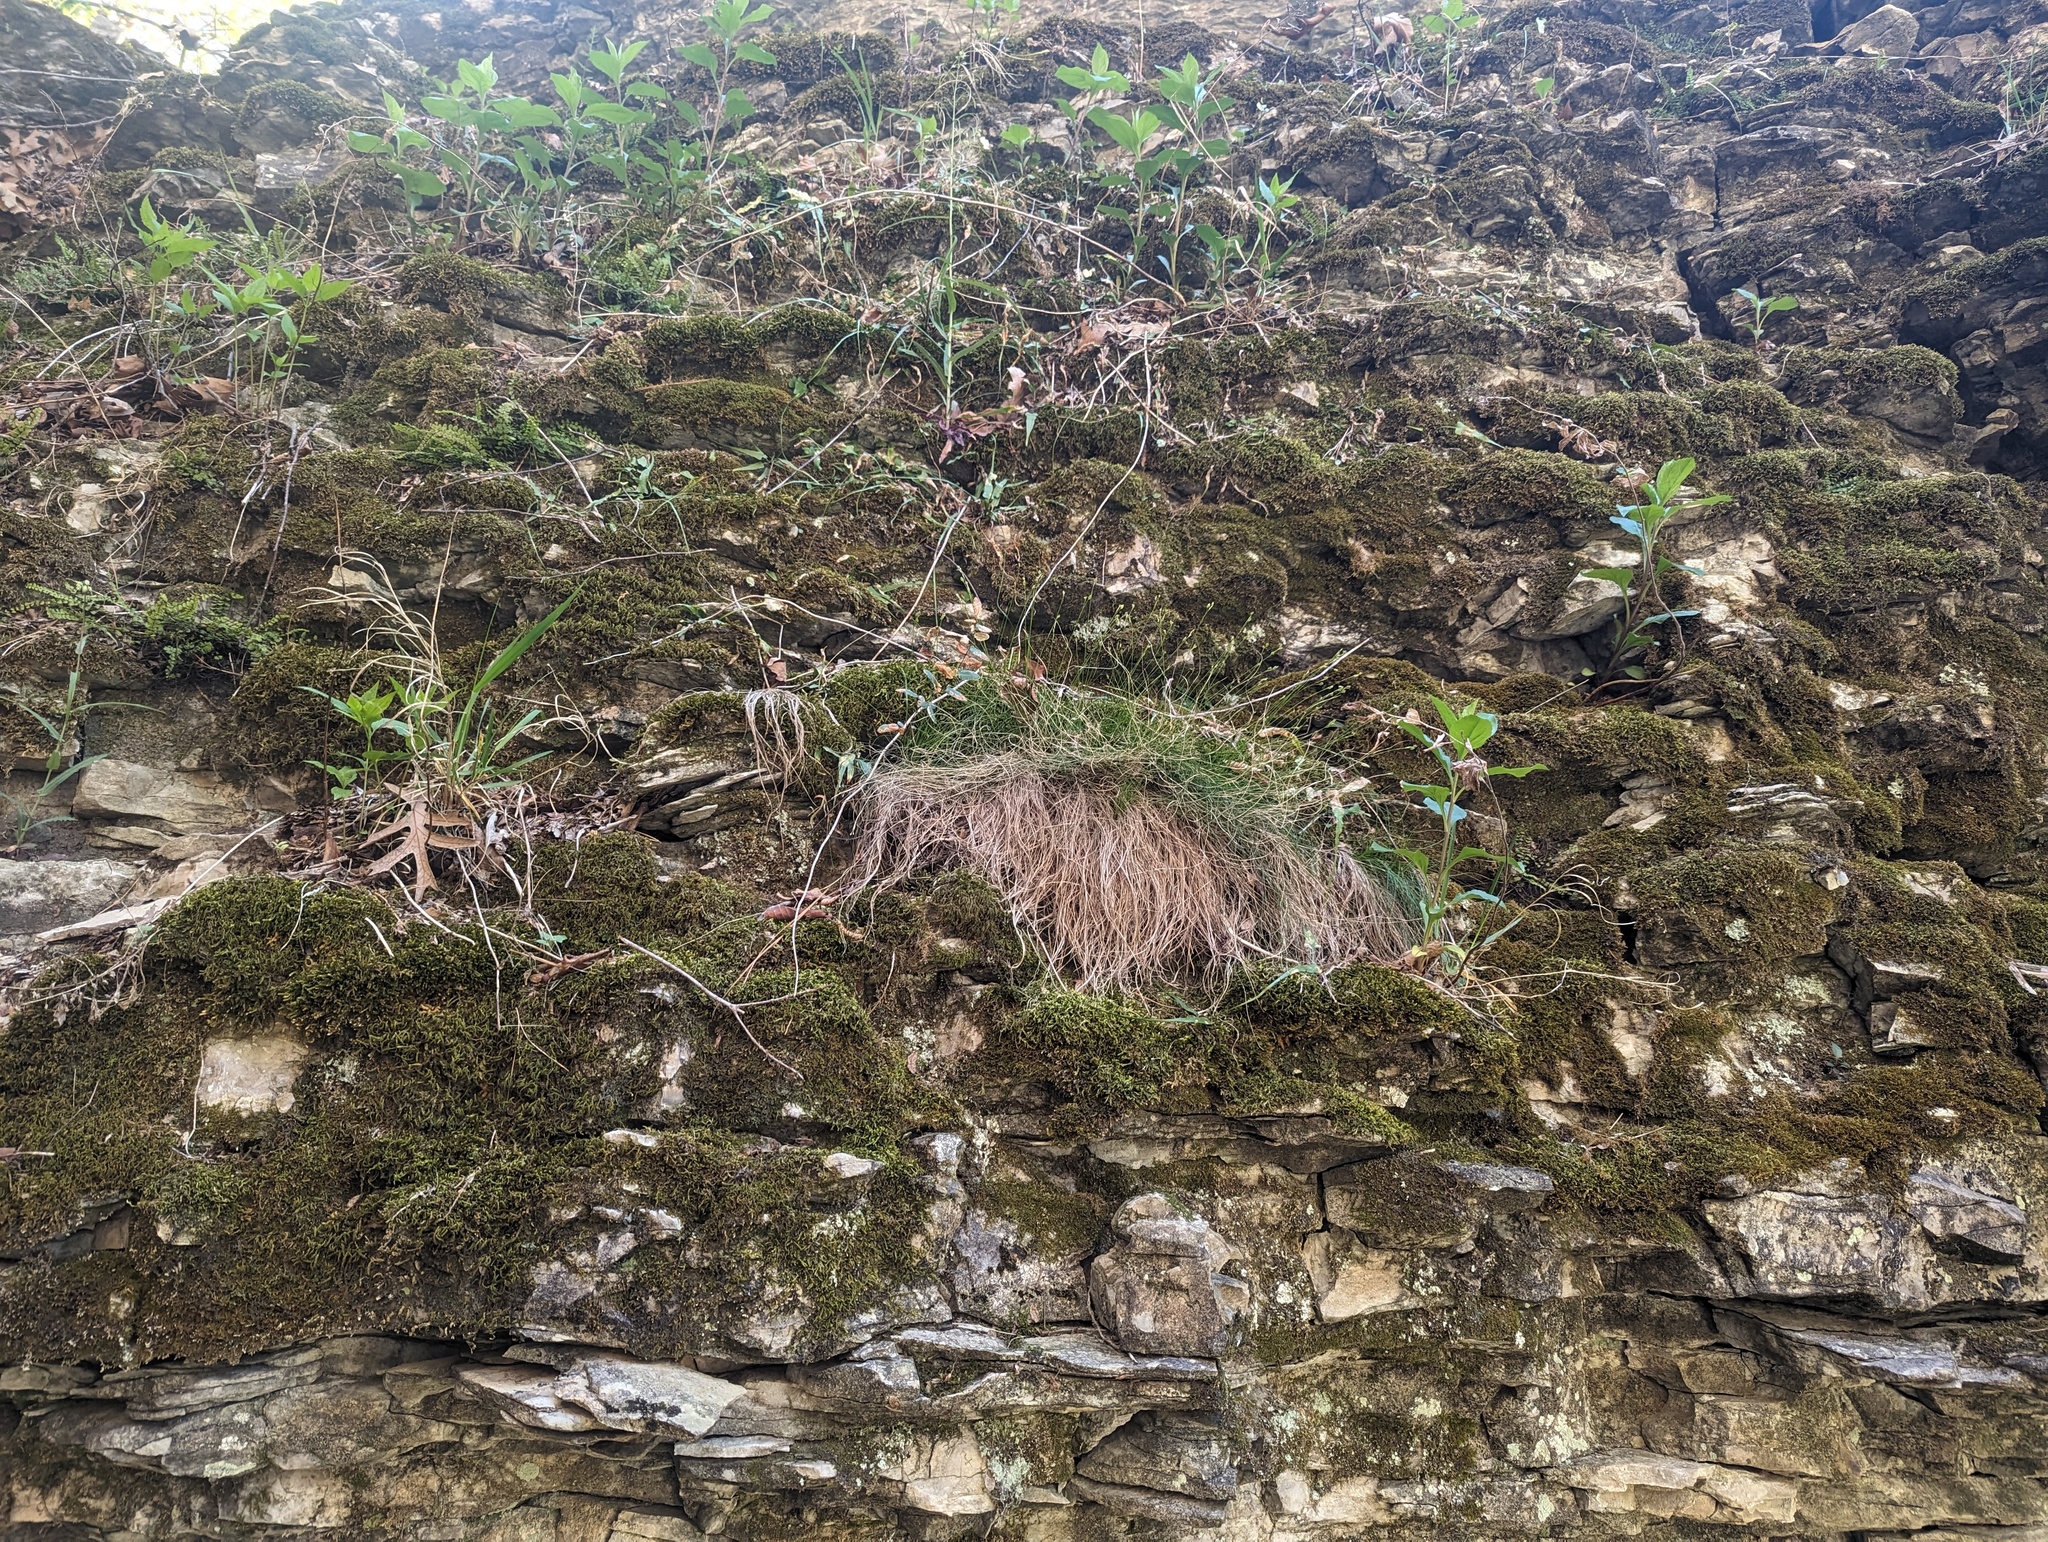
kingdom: Plantae
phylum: Tracheophyta
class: Liliopsida
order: Poales
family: Cyperaceae
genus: Carex
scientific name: Carex eburnea
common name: Bristle-leaved sedge
